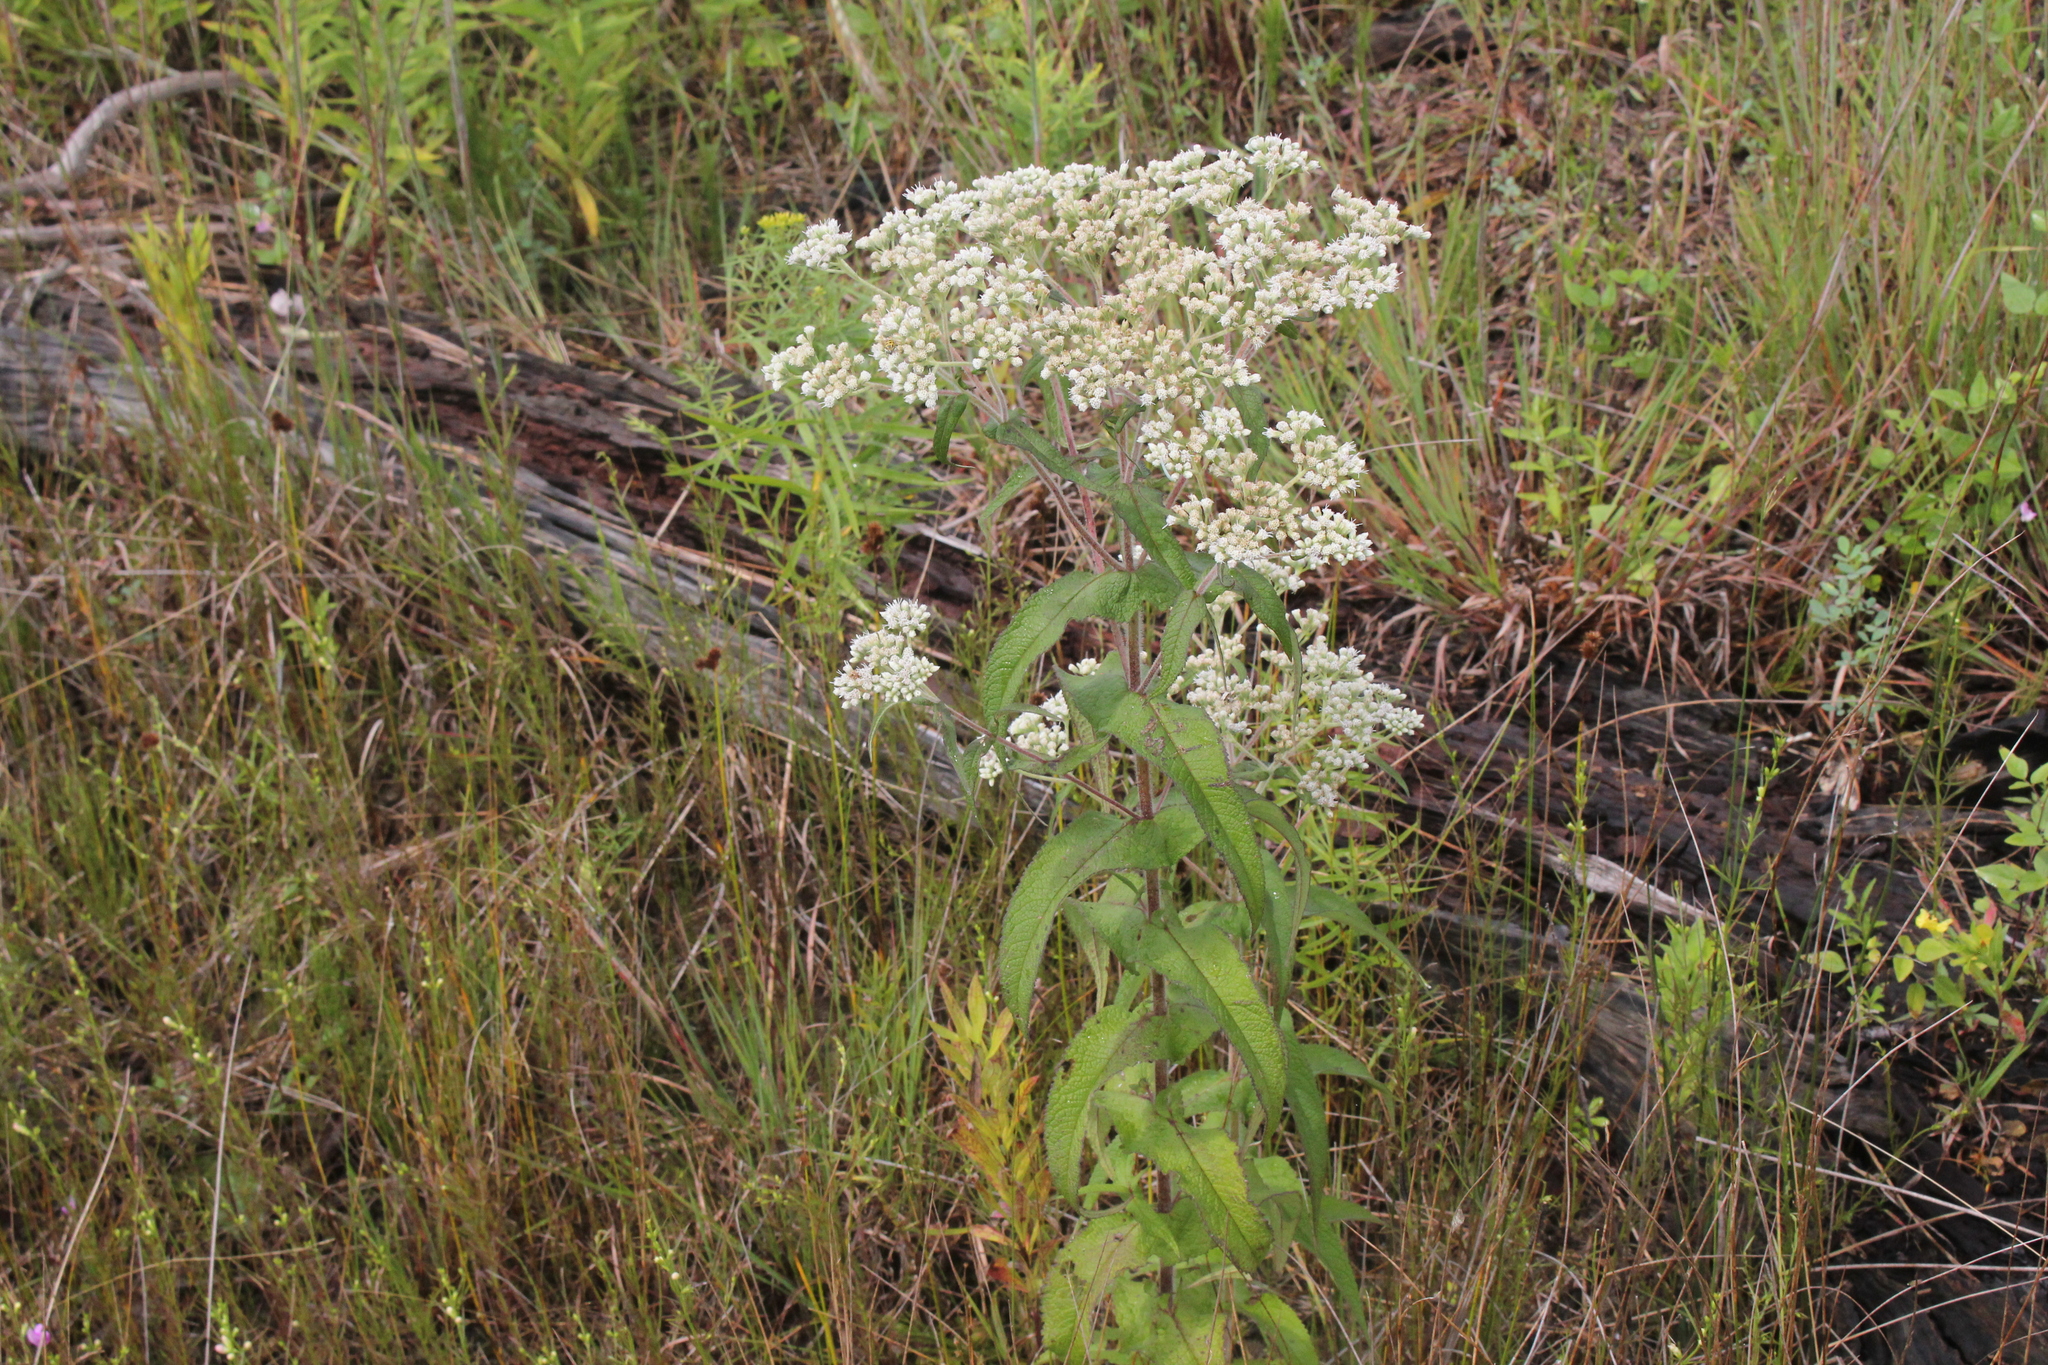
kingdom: Plantae
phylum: Tracheophyta
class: Magnoliopsida
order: Asterales
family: Asteraceae
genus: Eupatorium
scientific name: Eupatorium perfoliatum
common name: Boneset
